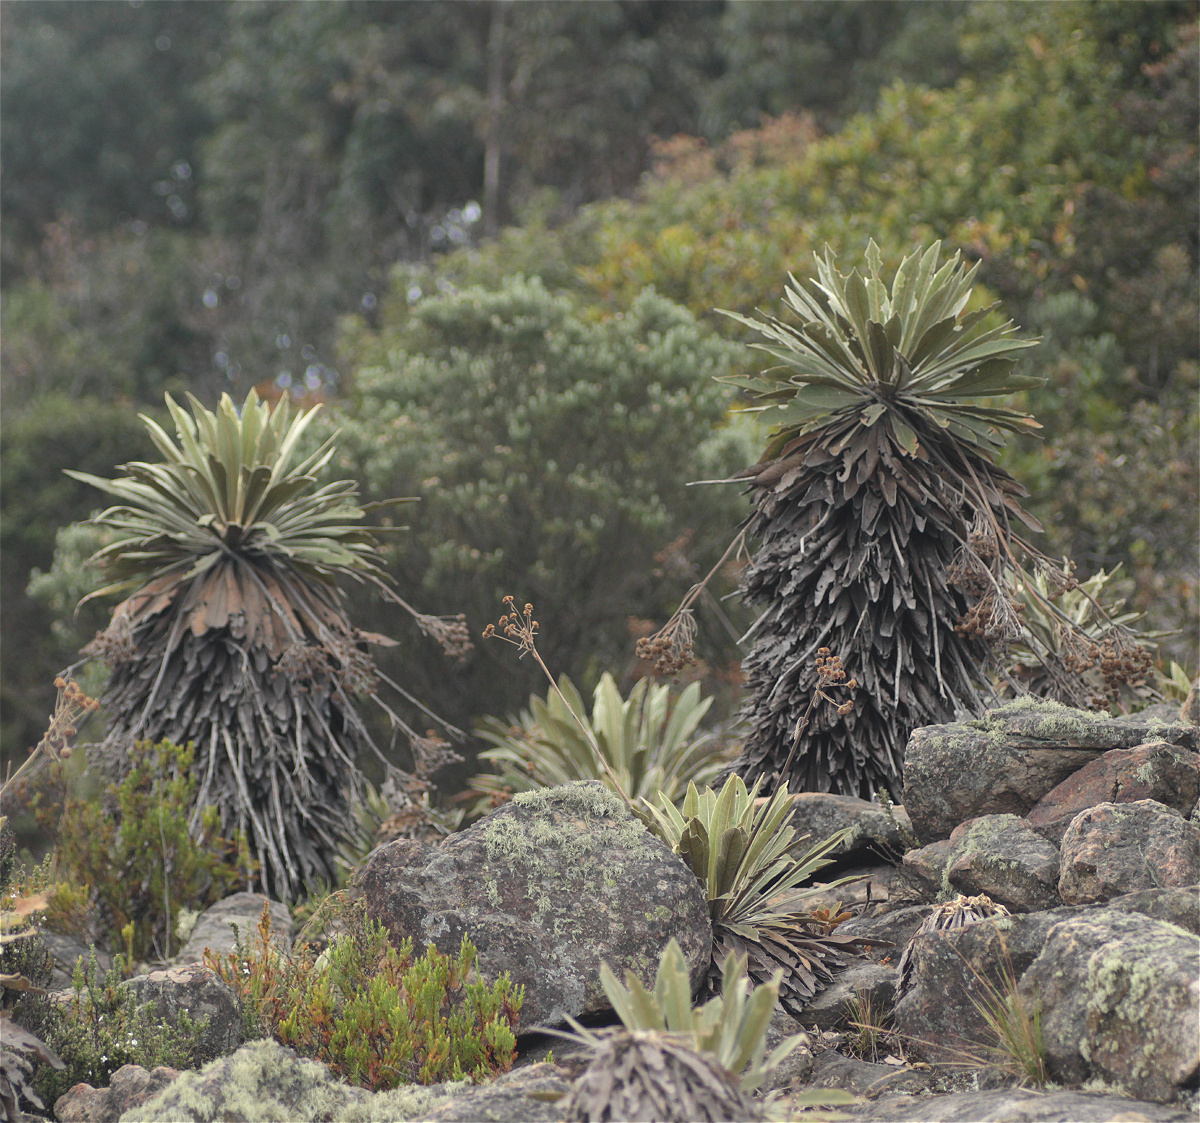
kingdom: Plantae
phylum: Tracheophyta
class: Magnoliopsida
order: Asterales
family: Asteraceae
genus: Espeletia
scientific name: Espeletia corymbosa
